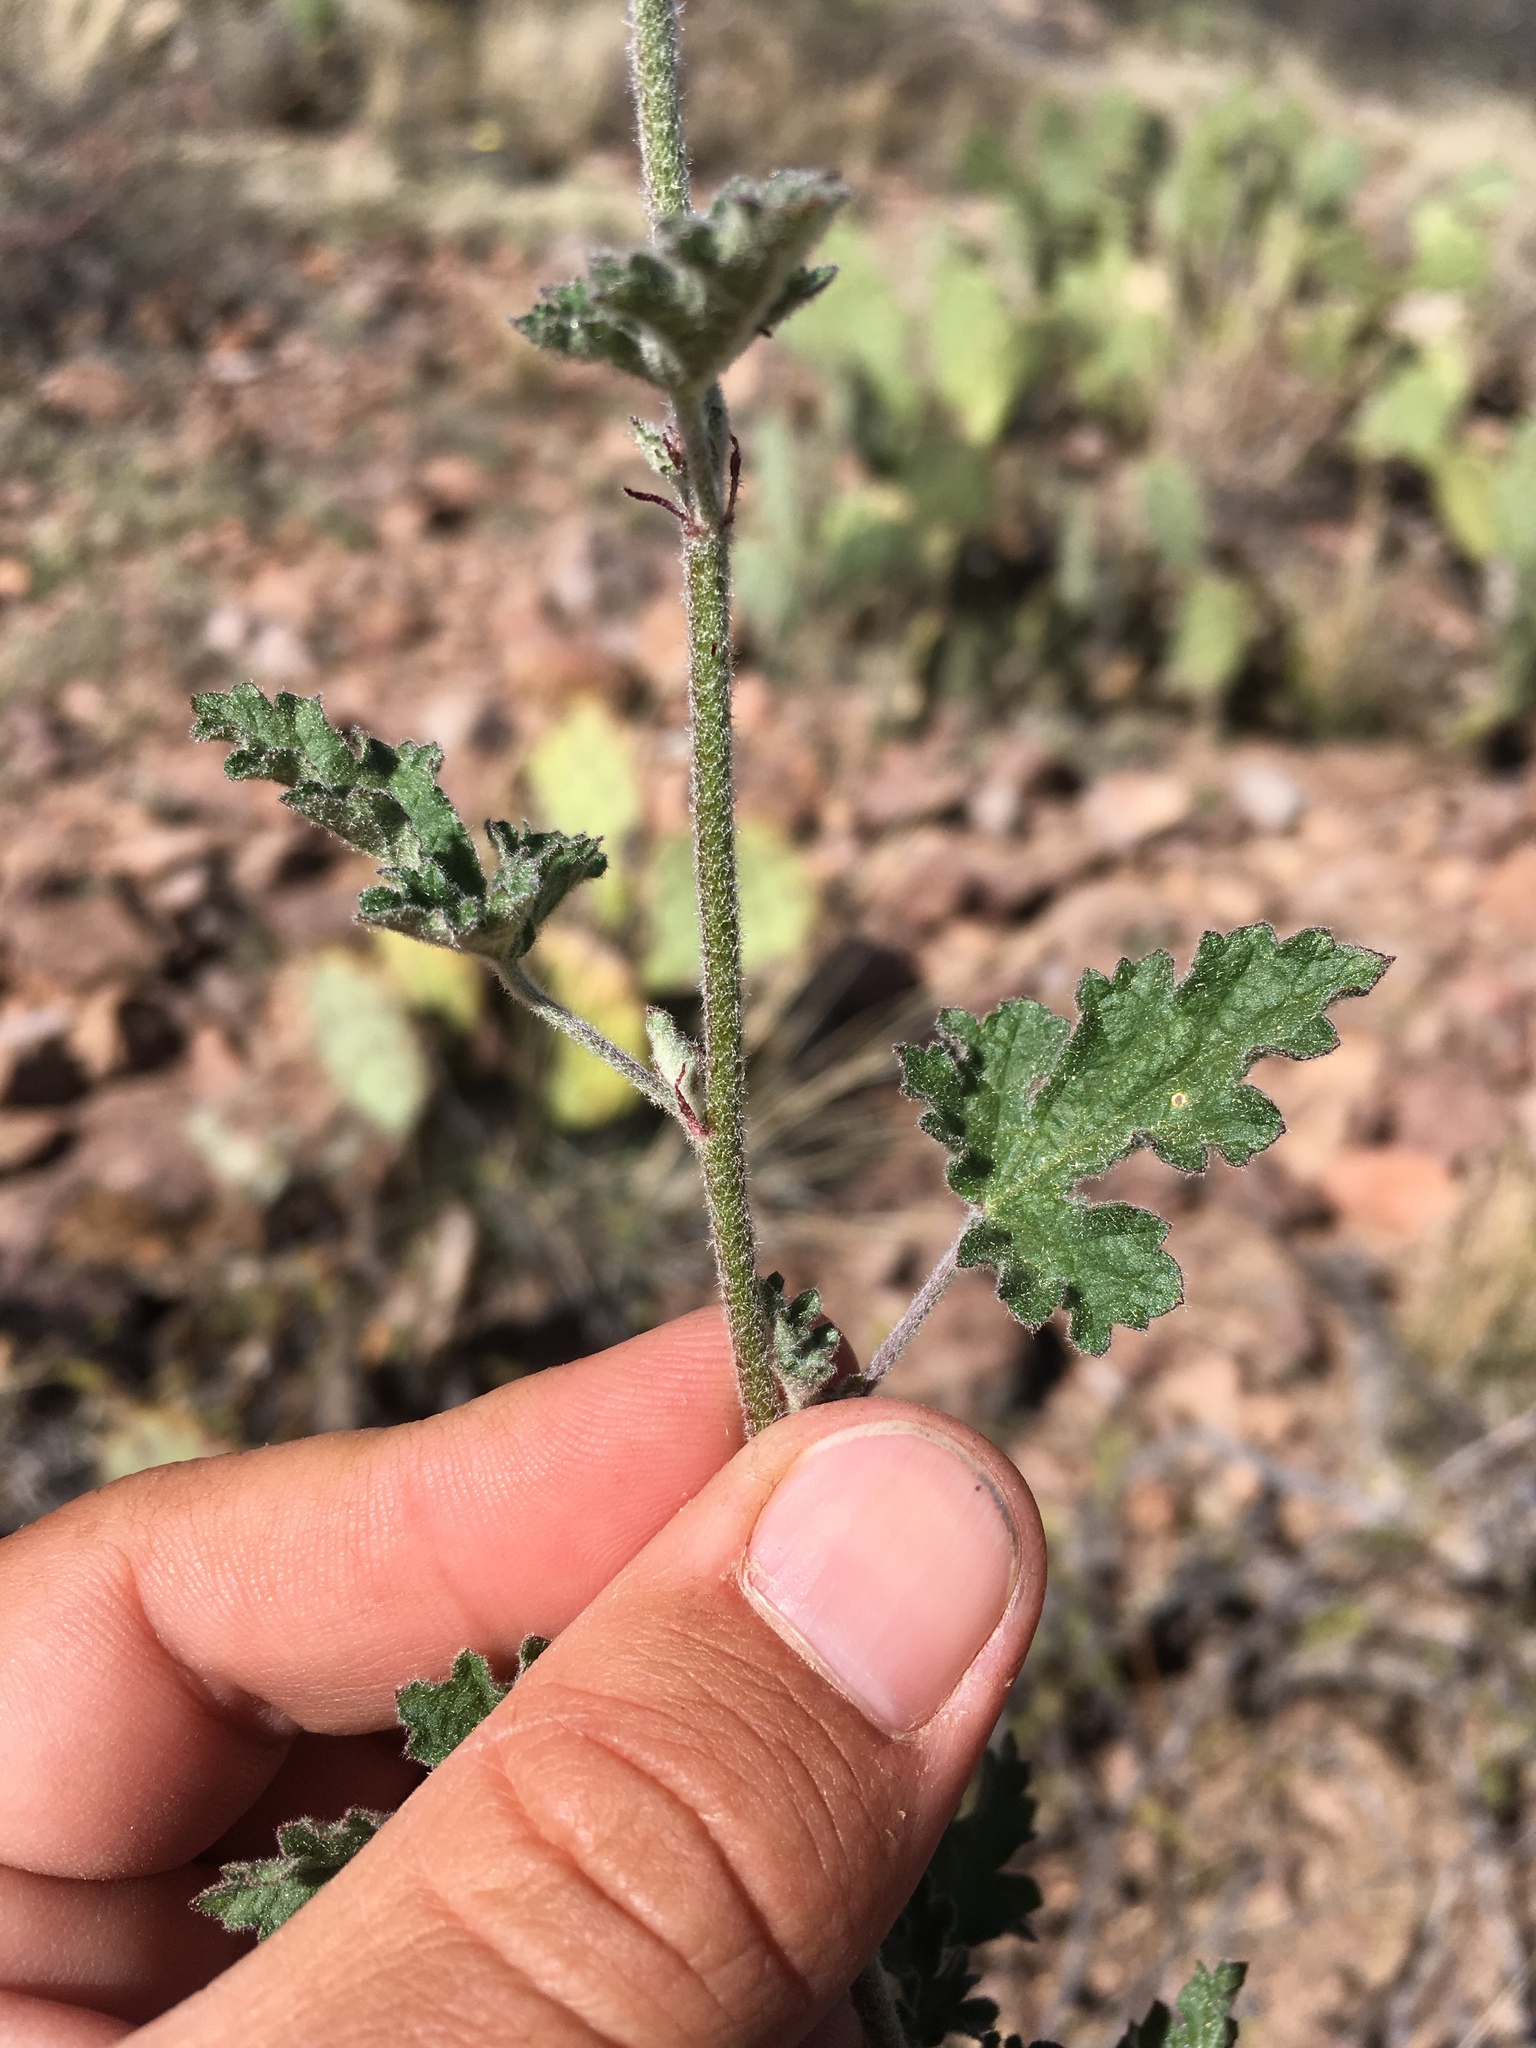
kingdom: Plantae
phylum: Tracheophyta
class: Magnoliopsida
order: Malvales
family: Malvaceae
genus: Sphaeralcea
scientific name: Sphaeralcea laxa
